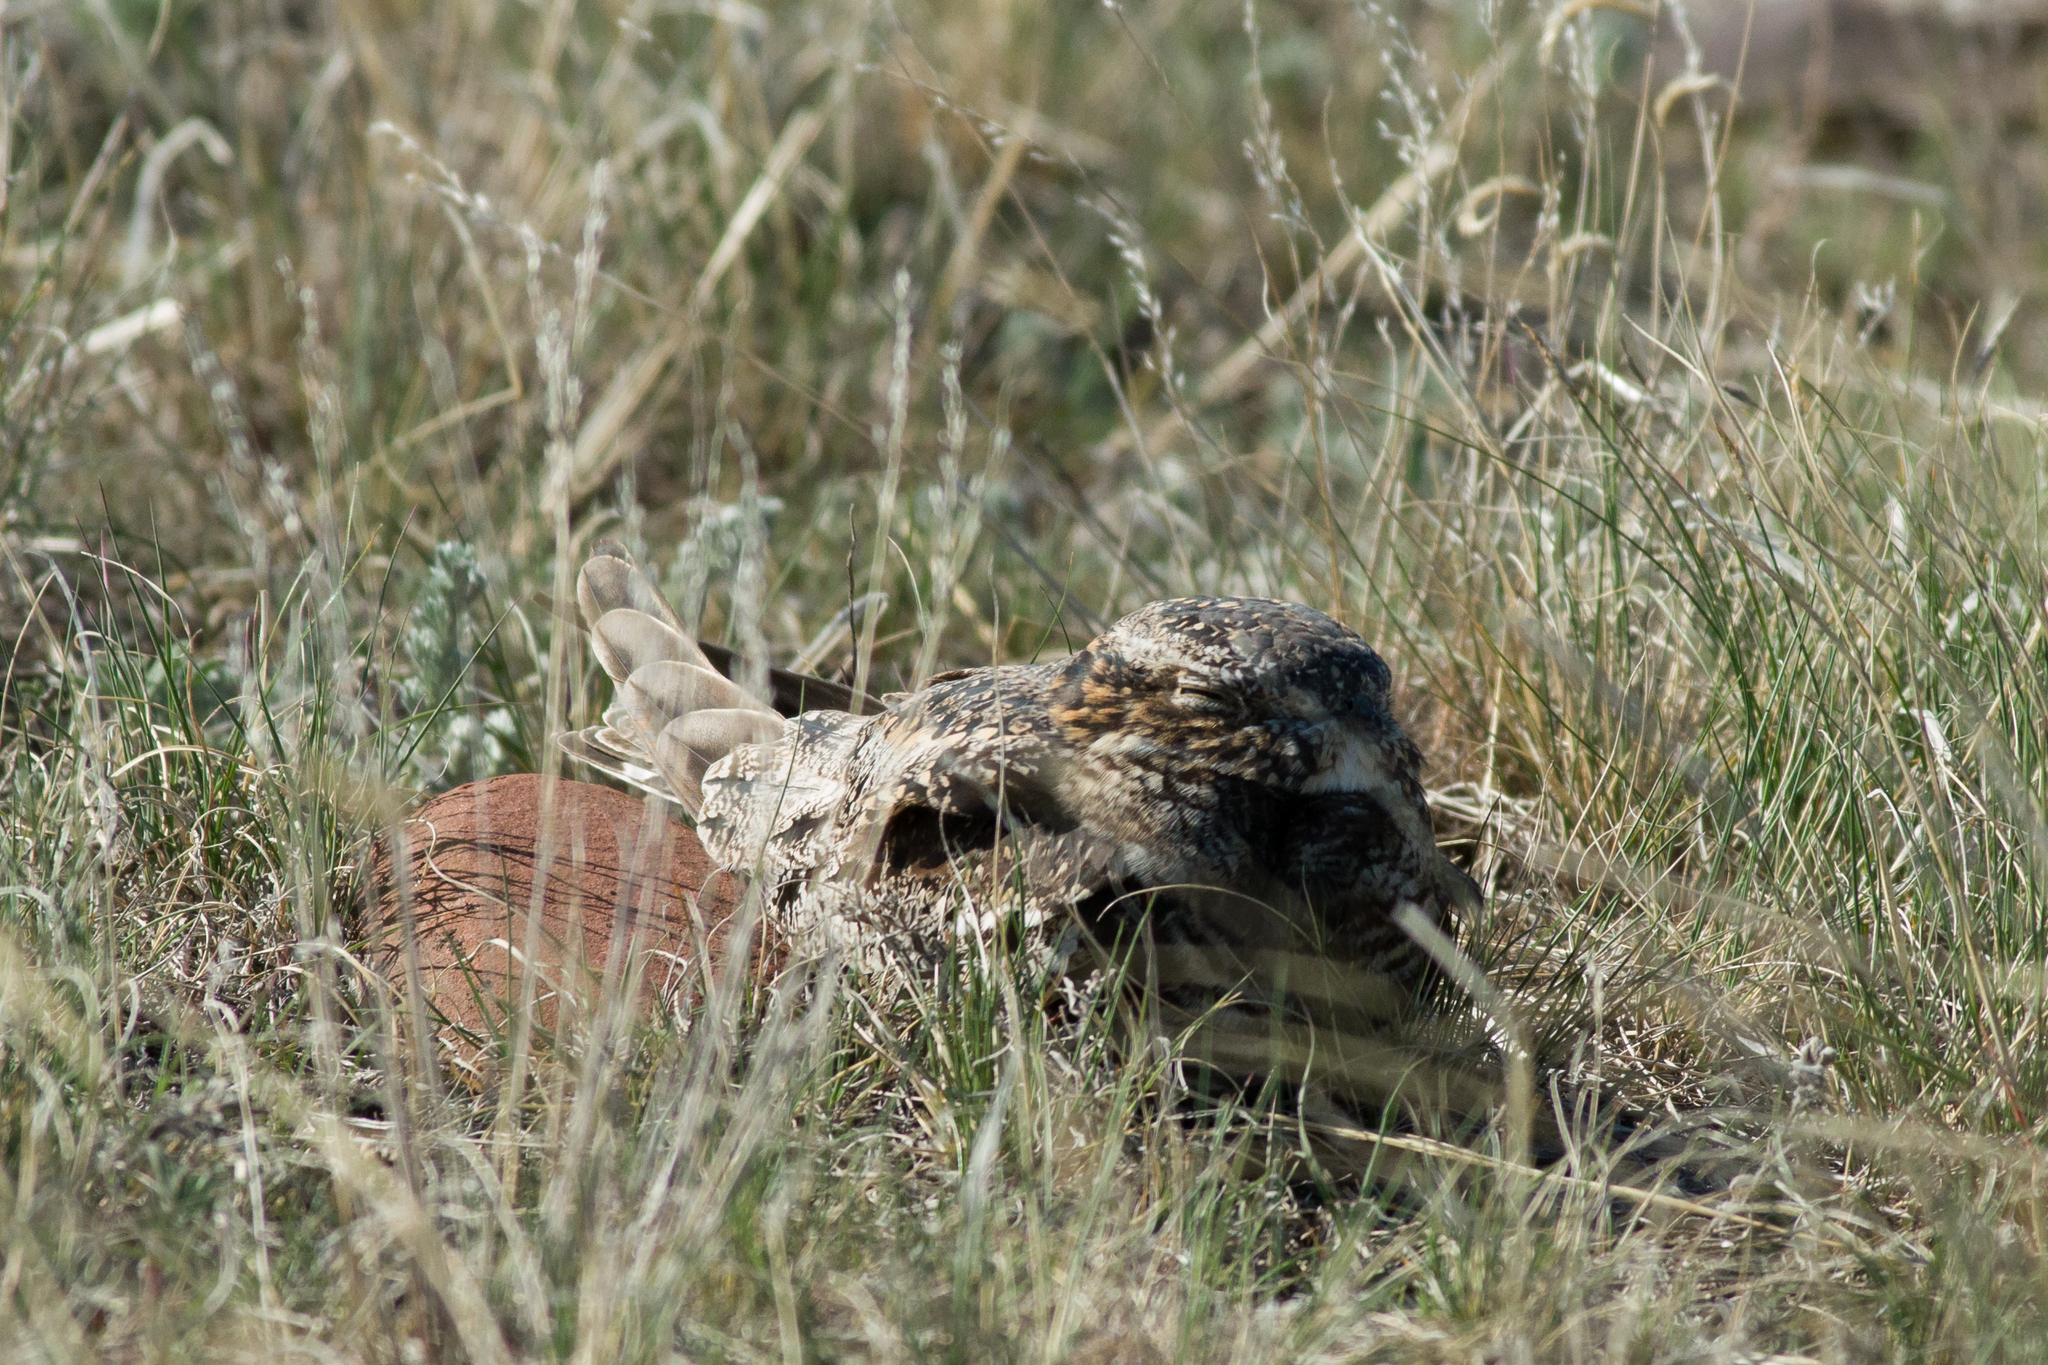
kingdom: Animalia
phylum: Chordata
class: Aves
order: Caprimulgiformes
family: Caprimulgidae
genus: Chordeiles
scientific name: Chordeiles minor
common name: Common nighthawk
